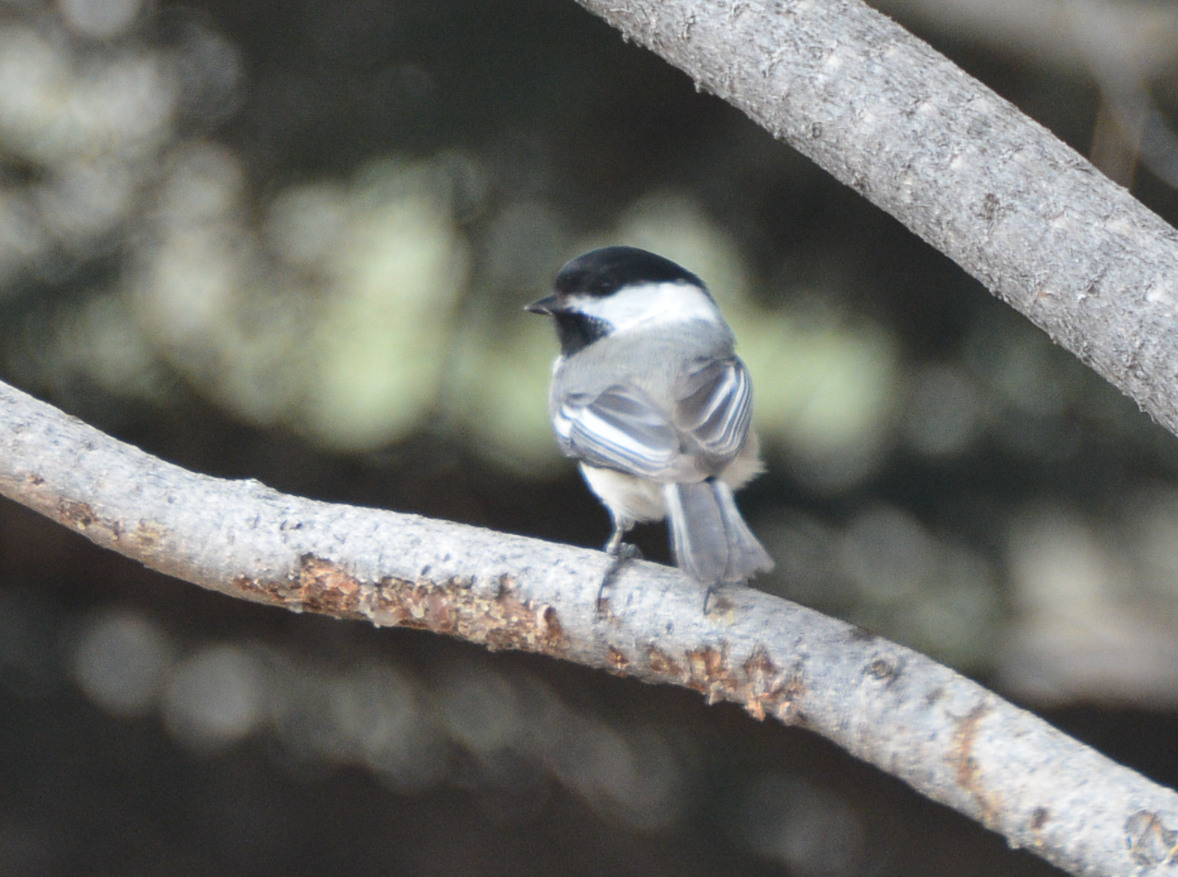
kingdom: Animalia
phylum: Chordata
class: Aves
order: Passeriformes
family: Paridae
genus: Poecile
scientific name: Poecile atricapillus
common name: Black-capped chickadee
